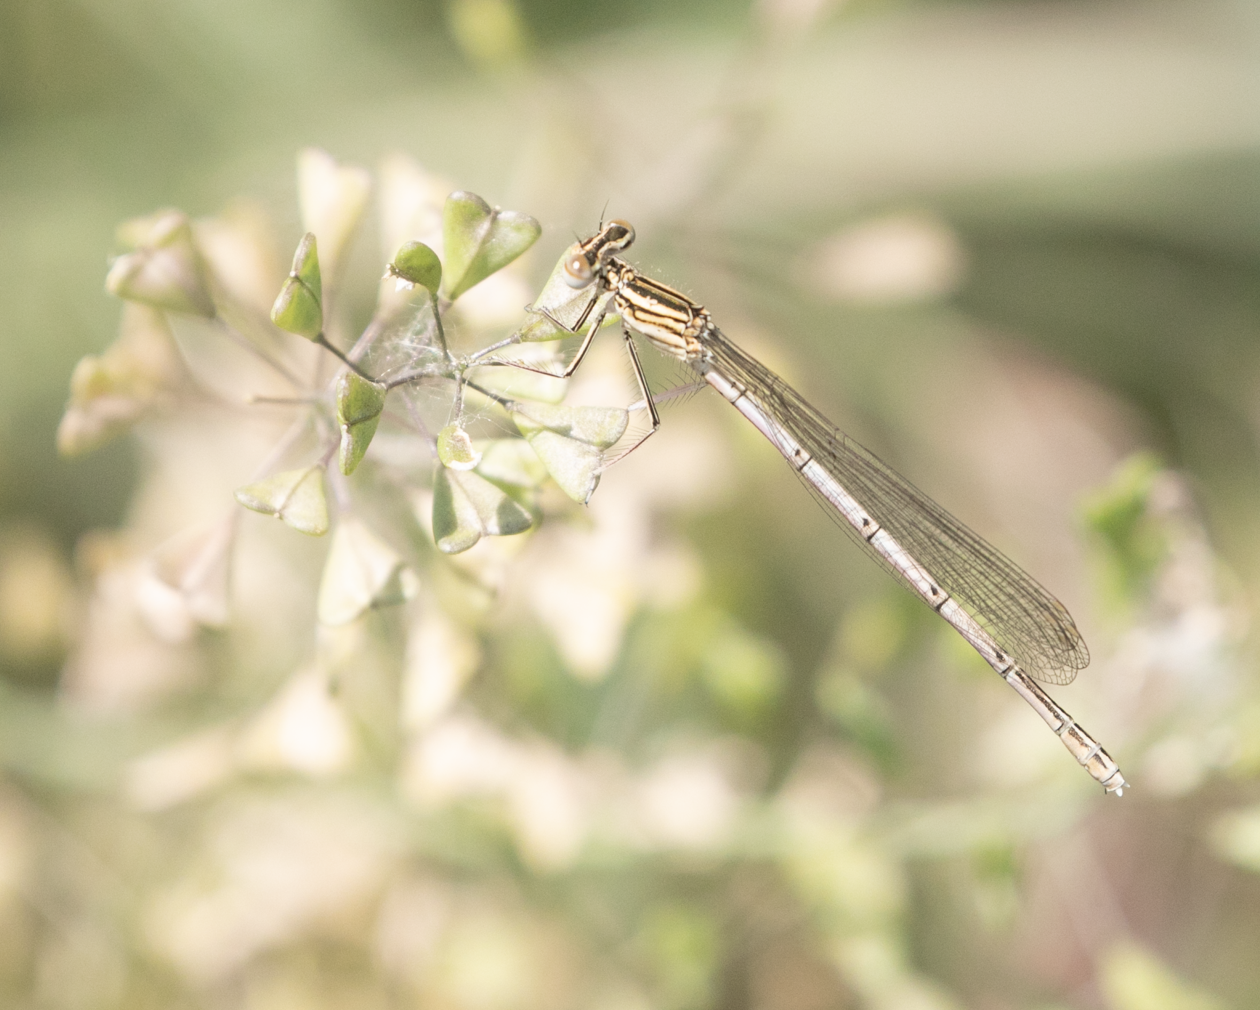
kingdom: Animalia
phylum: Arthropoda
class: Insecta
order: Odonata
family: Platycnemididae
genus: Platycnemis
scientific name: Platycnemis pennipes
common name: White-legged damselfly
